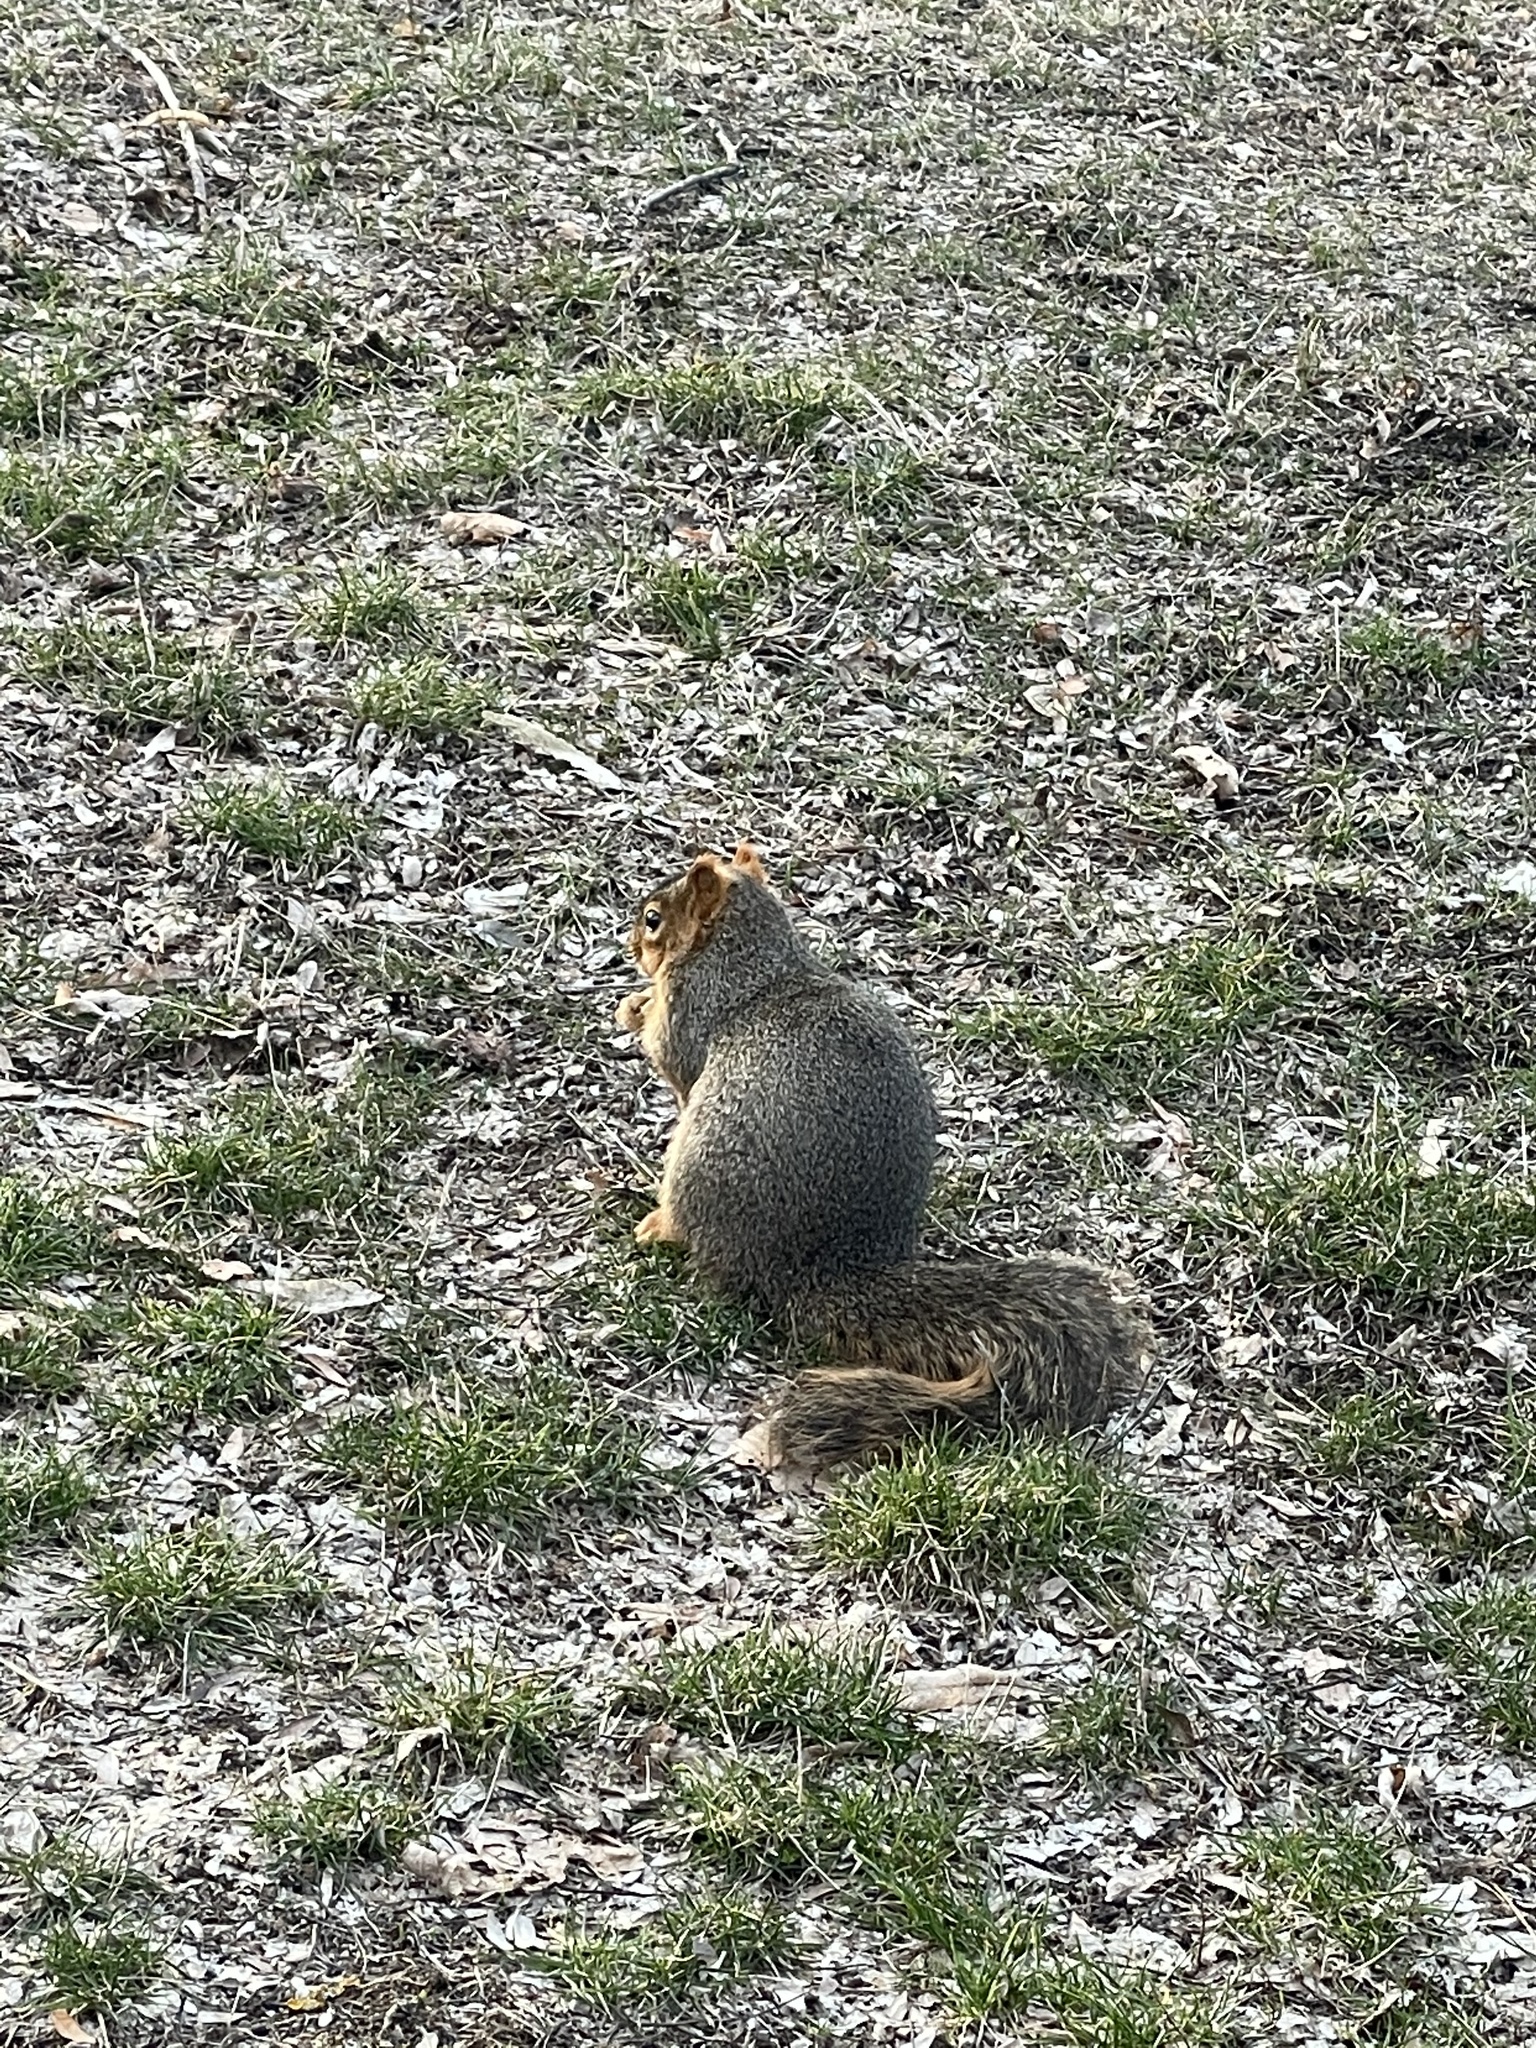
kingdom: Animalia
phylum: Chordata
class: Mammalia
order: Rodentia
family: Sciuridae
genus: Sciurus
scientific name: Sciurus niger
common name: Fox squirrel
